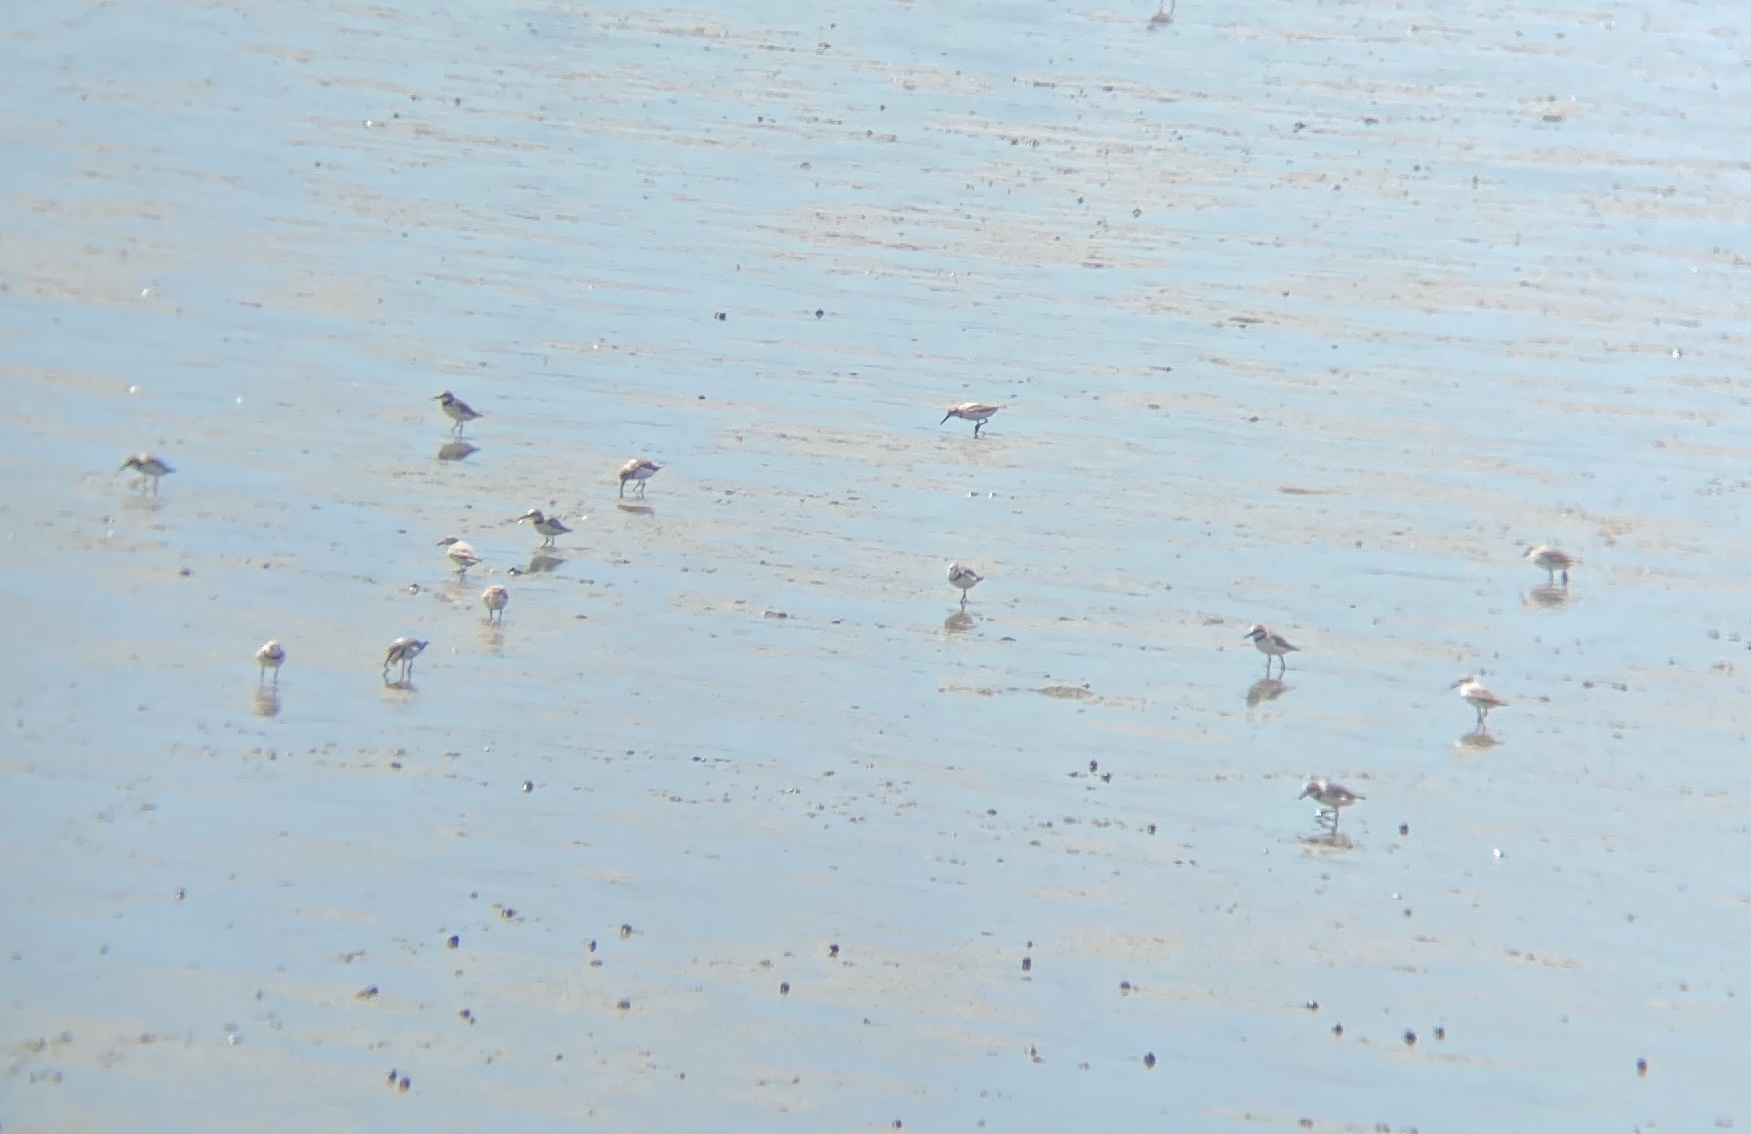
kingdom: Animalia
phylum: Chordata
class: Aves
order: Charadriiformes
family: Charadriidae
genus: Anarhynchus
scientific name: Anarhynchus frontalis
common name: Wrybill
